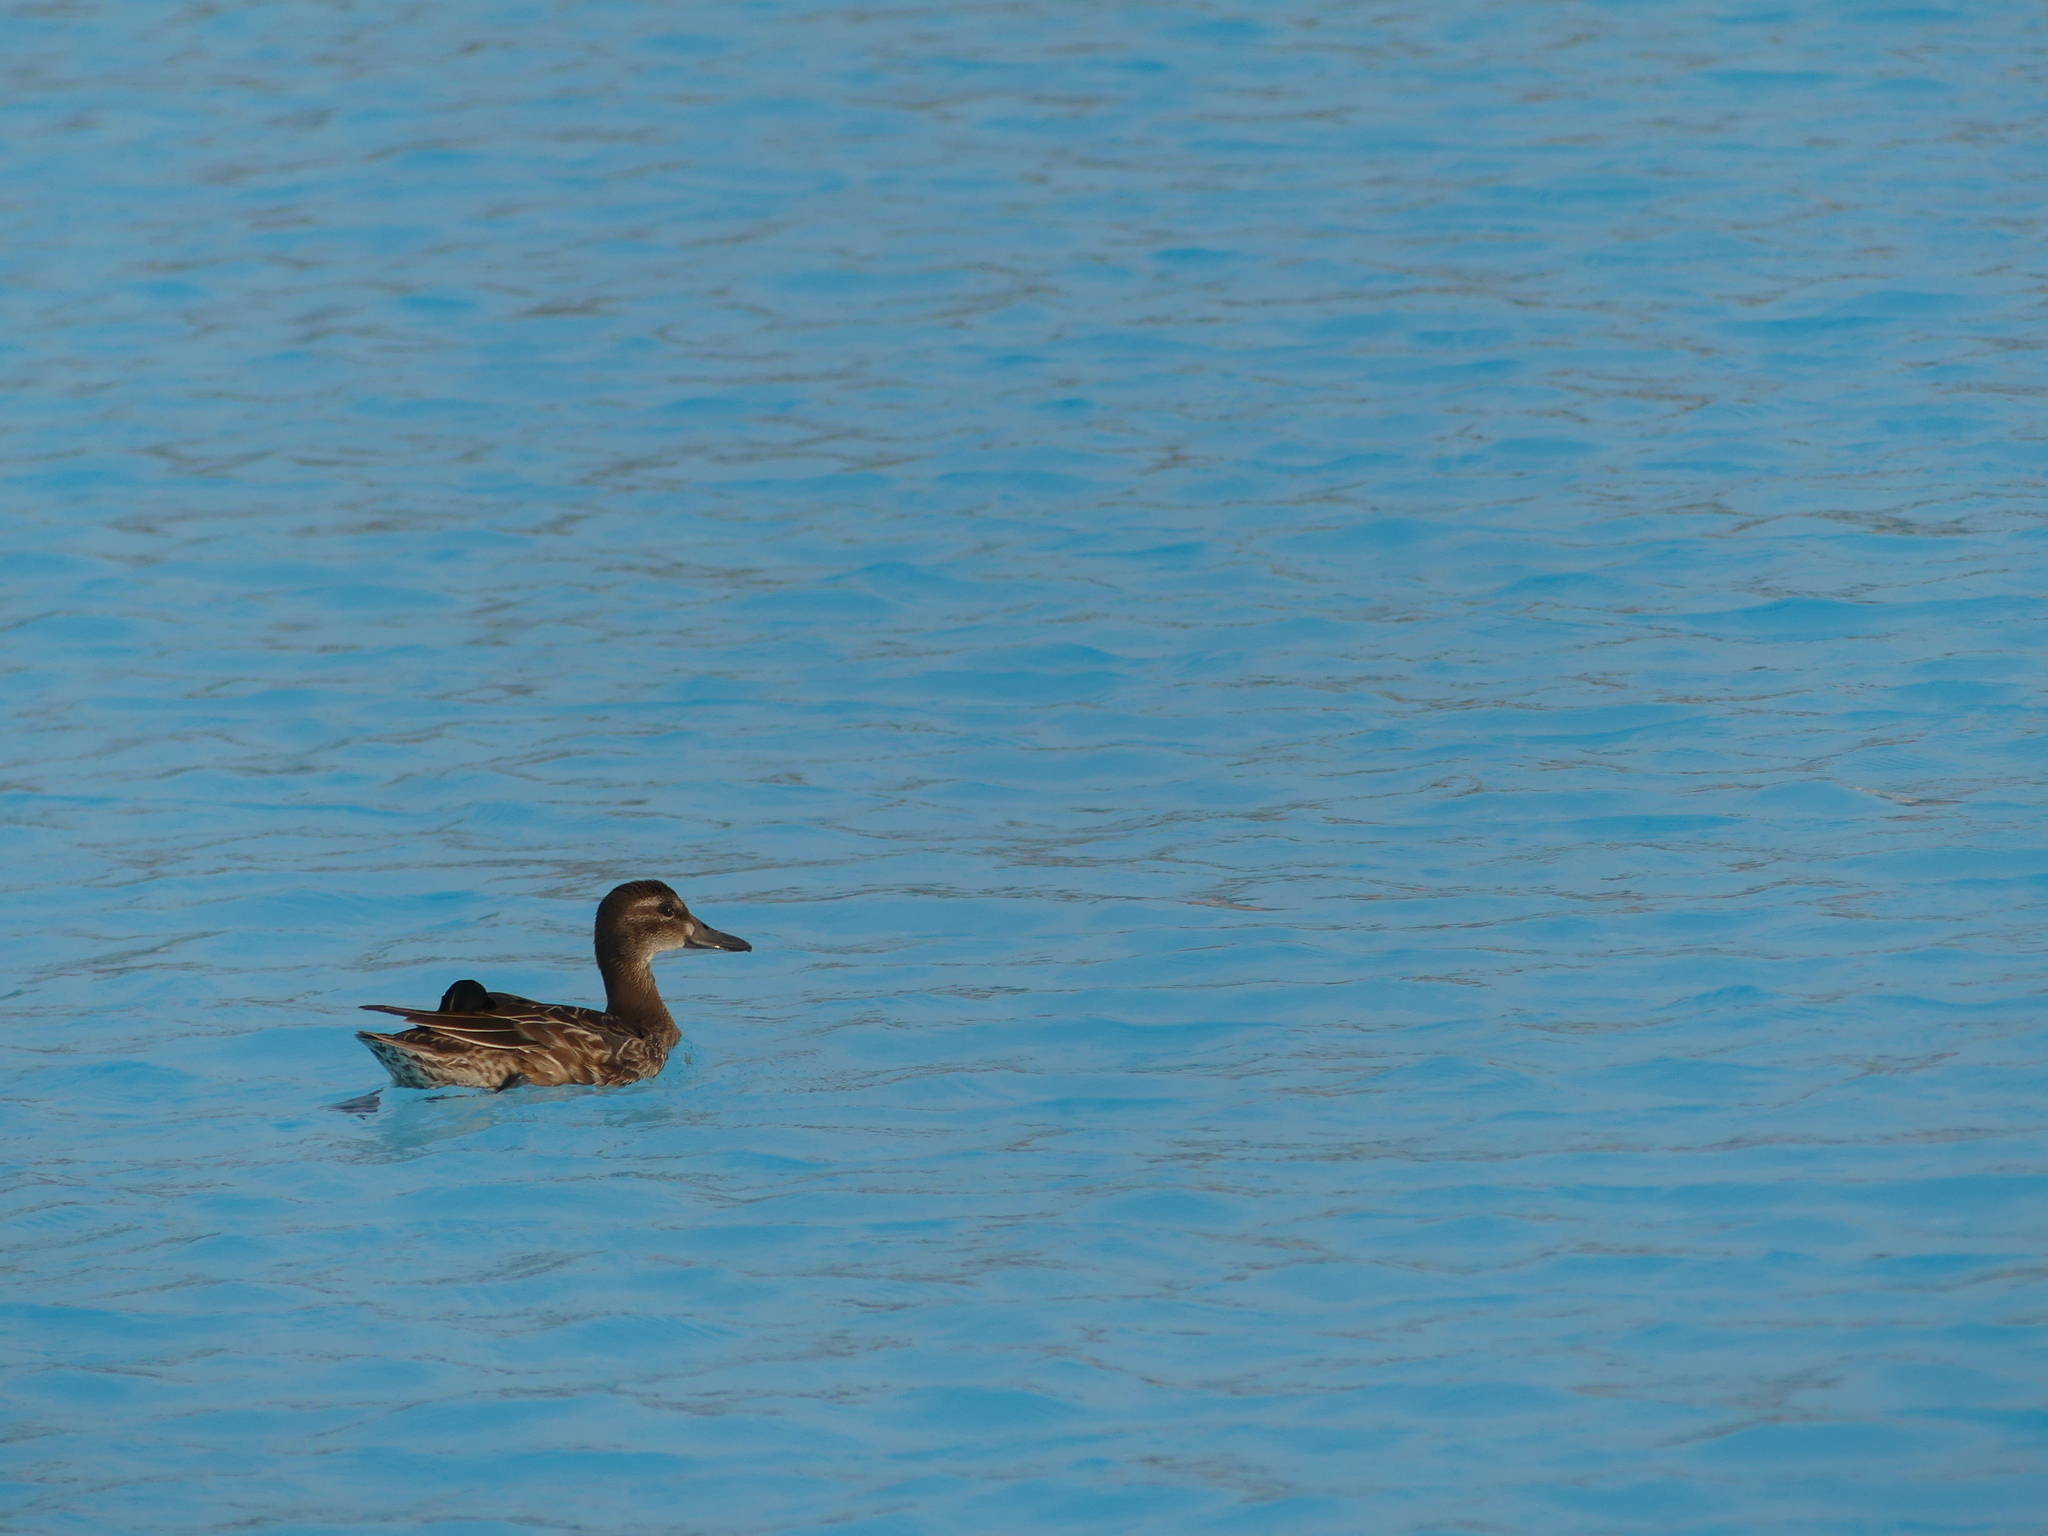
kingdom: Animalia
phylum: Chordata
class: Aves
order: Anseriformes
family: Anatidae
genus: Spatula
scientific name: Spatula querquedula
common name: Garganey
